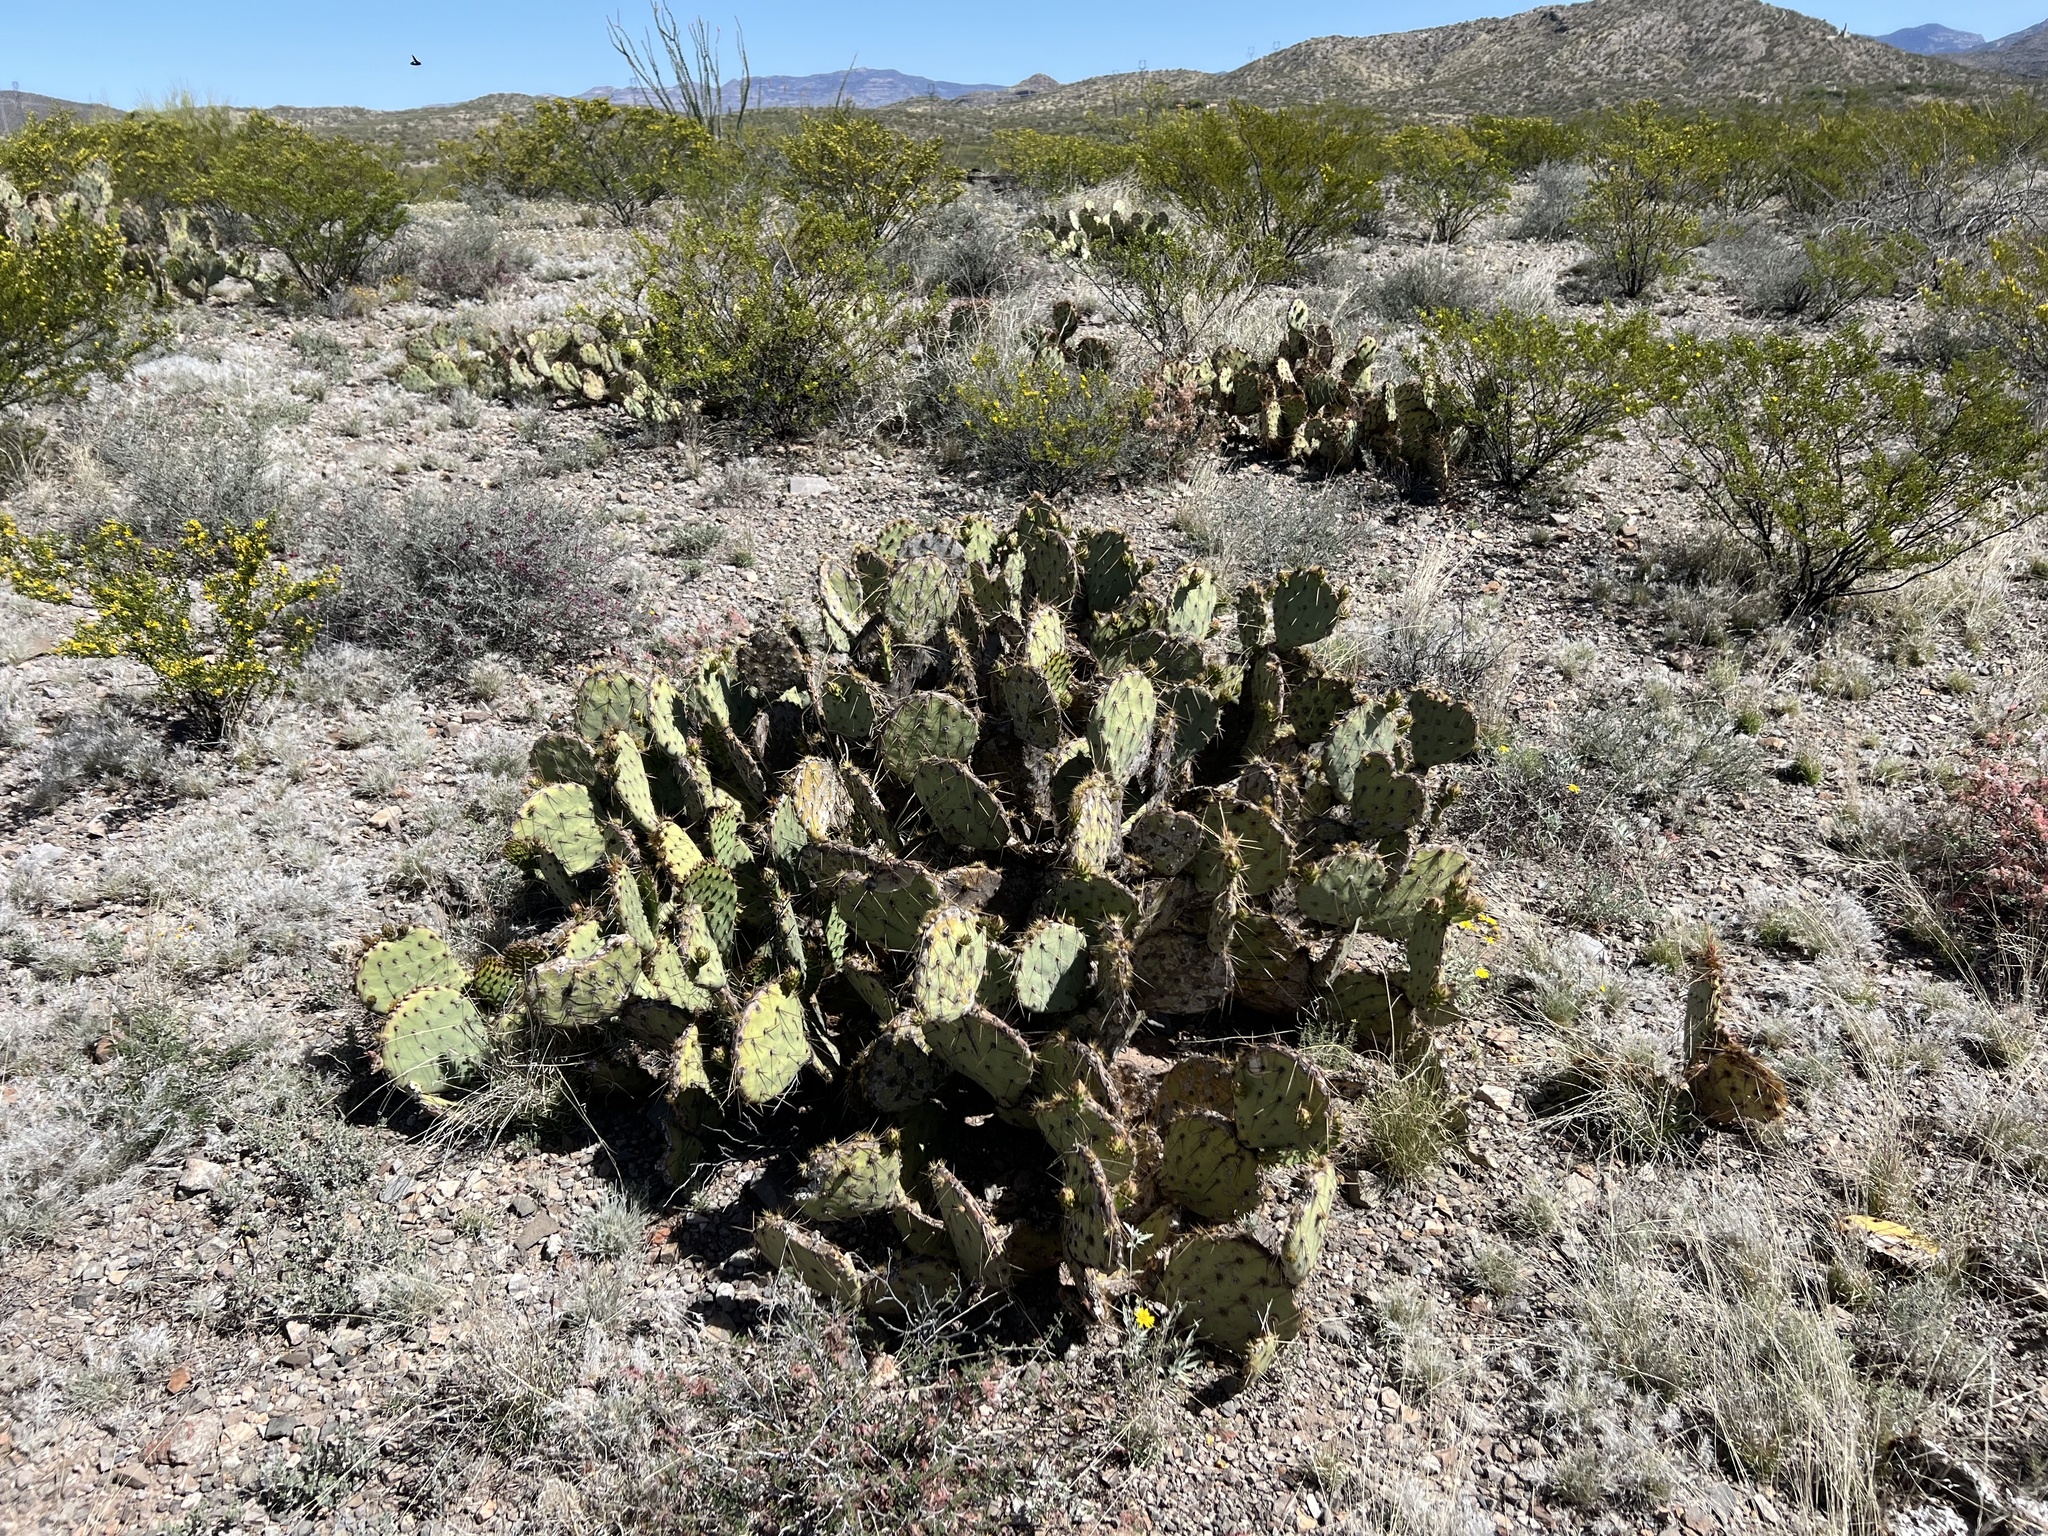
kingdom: Plantae
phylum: Tracheophyta
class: Magnoliopsida
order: Caryophyllales
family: Cactaceae
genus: Opuntia
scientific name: Opuntia engelmannii
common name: Cactus-apple
